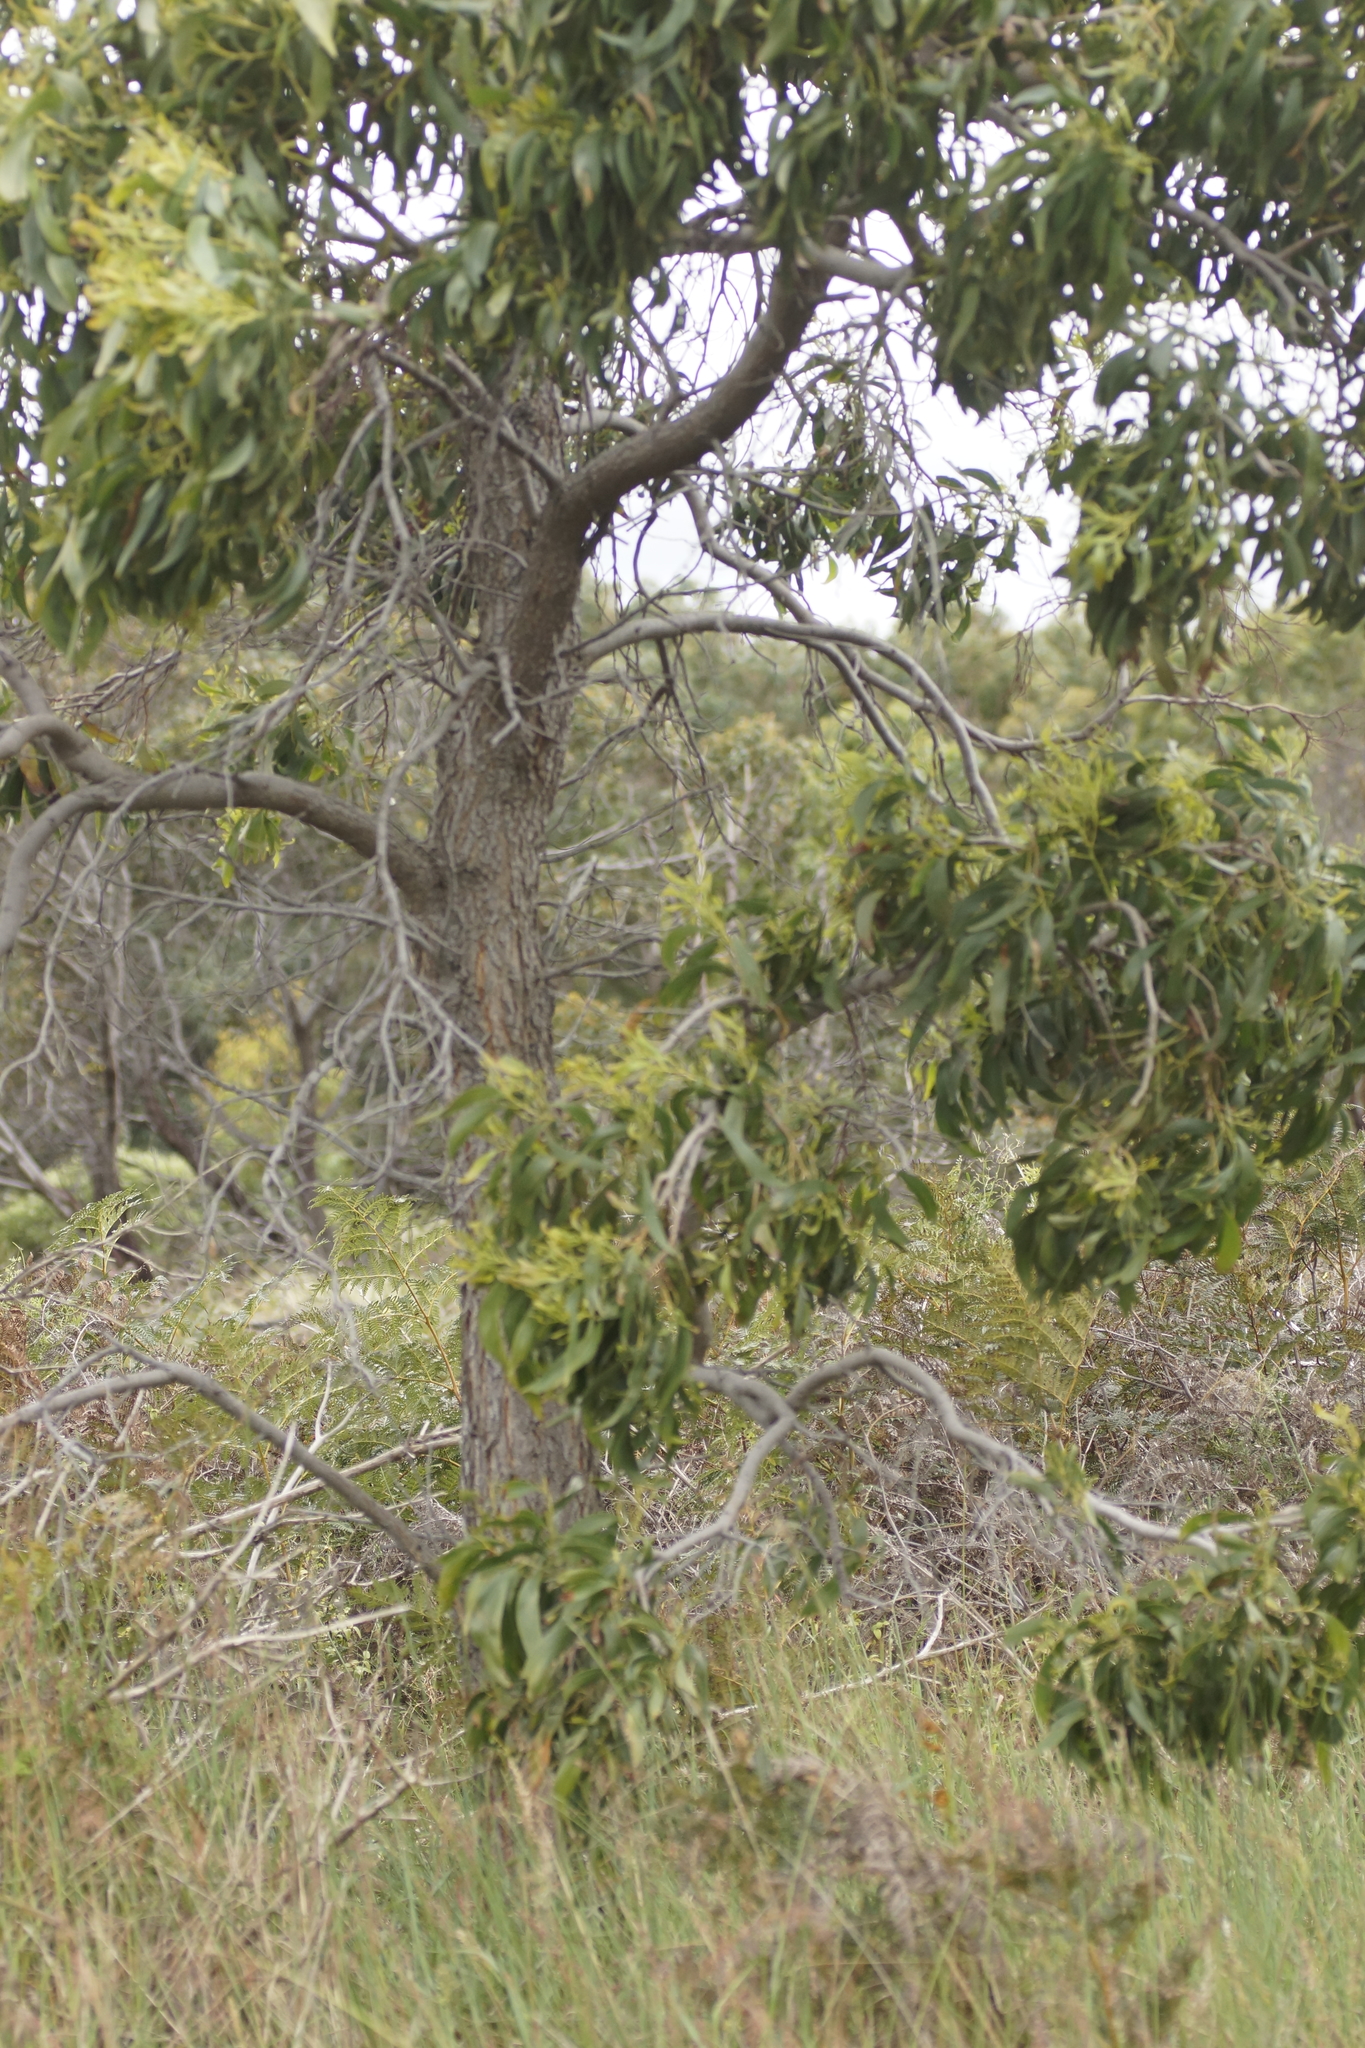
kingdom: Plantae
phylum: Tracheophyta
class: Magnoliopsida
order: Fabales
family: Fabaceae
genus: Acacia
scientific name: Acacia implexa
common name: Black wattle
